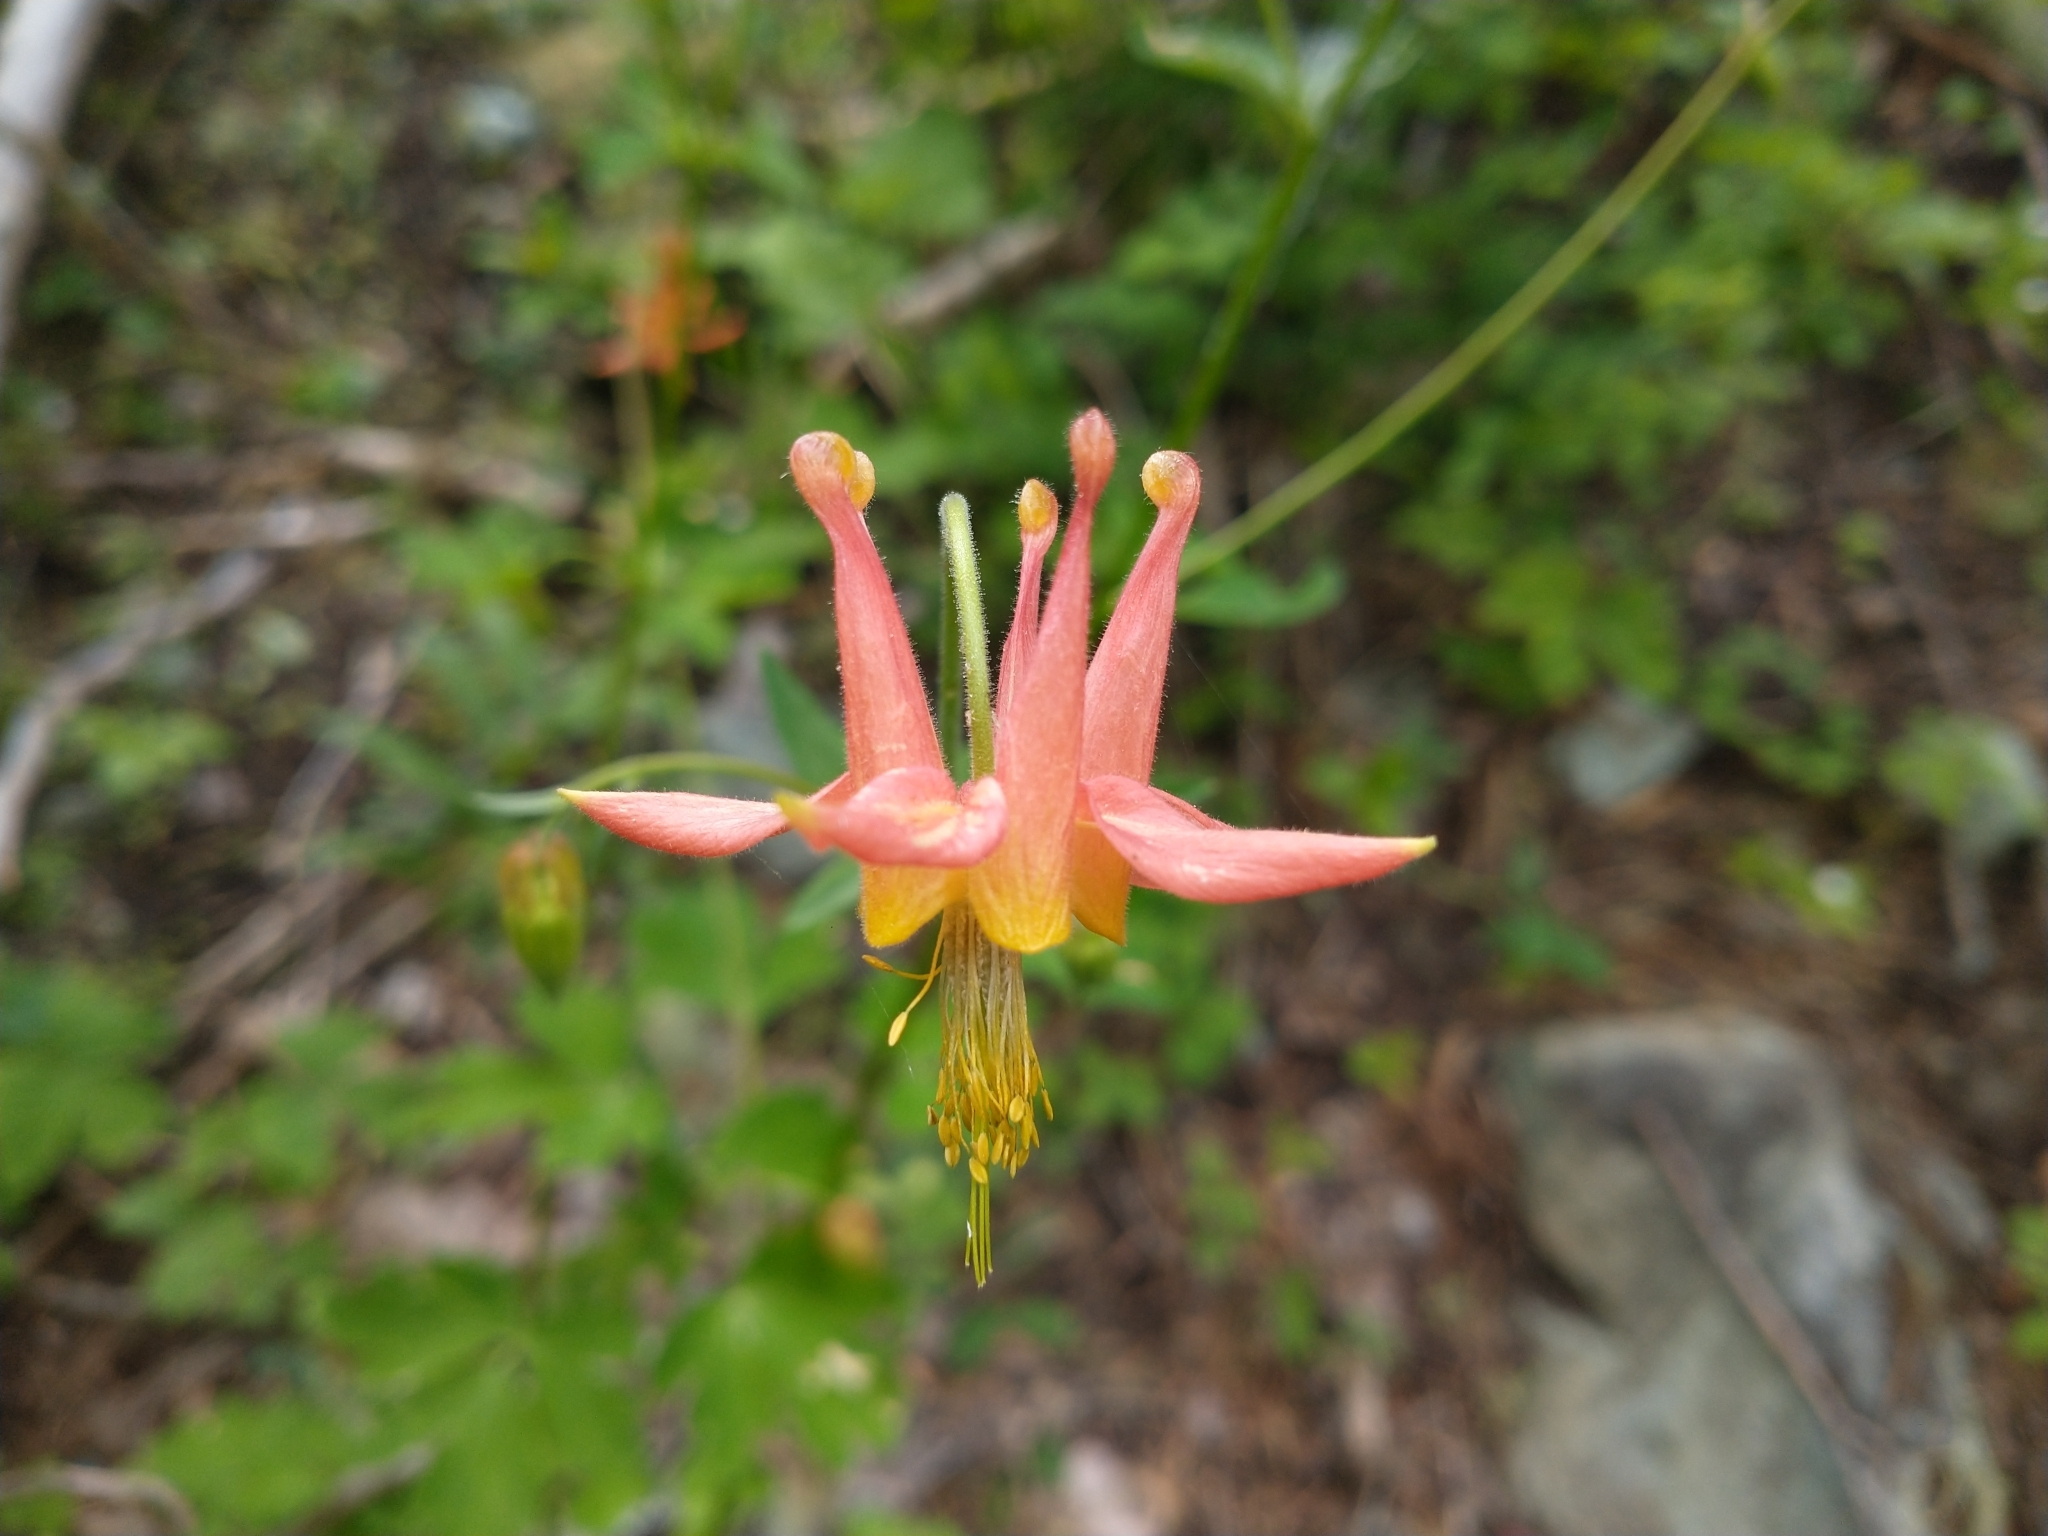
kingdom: Plantae
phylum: Tracheophyta
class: Magnoliopsida
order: Ranunculales
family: Ranunculaceae
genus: Aquilegia
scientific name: Aquilegia formosa
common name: Sitka columbine
